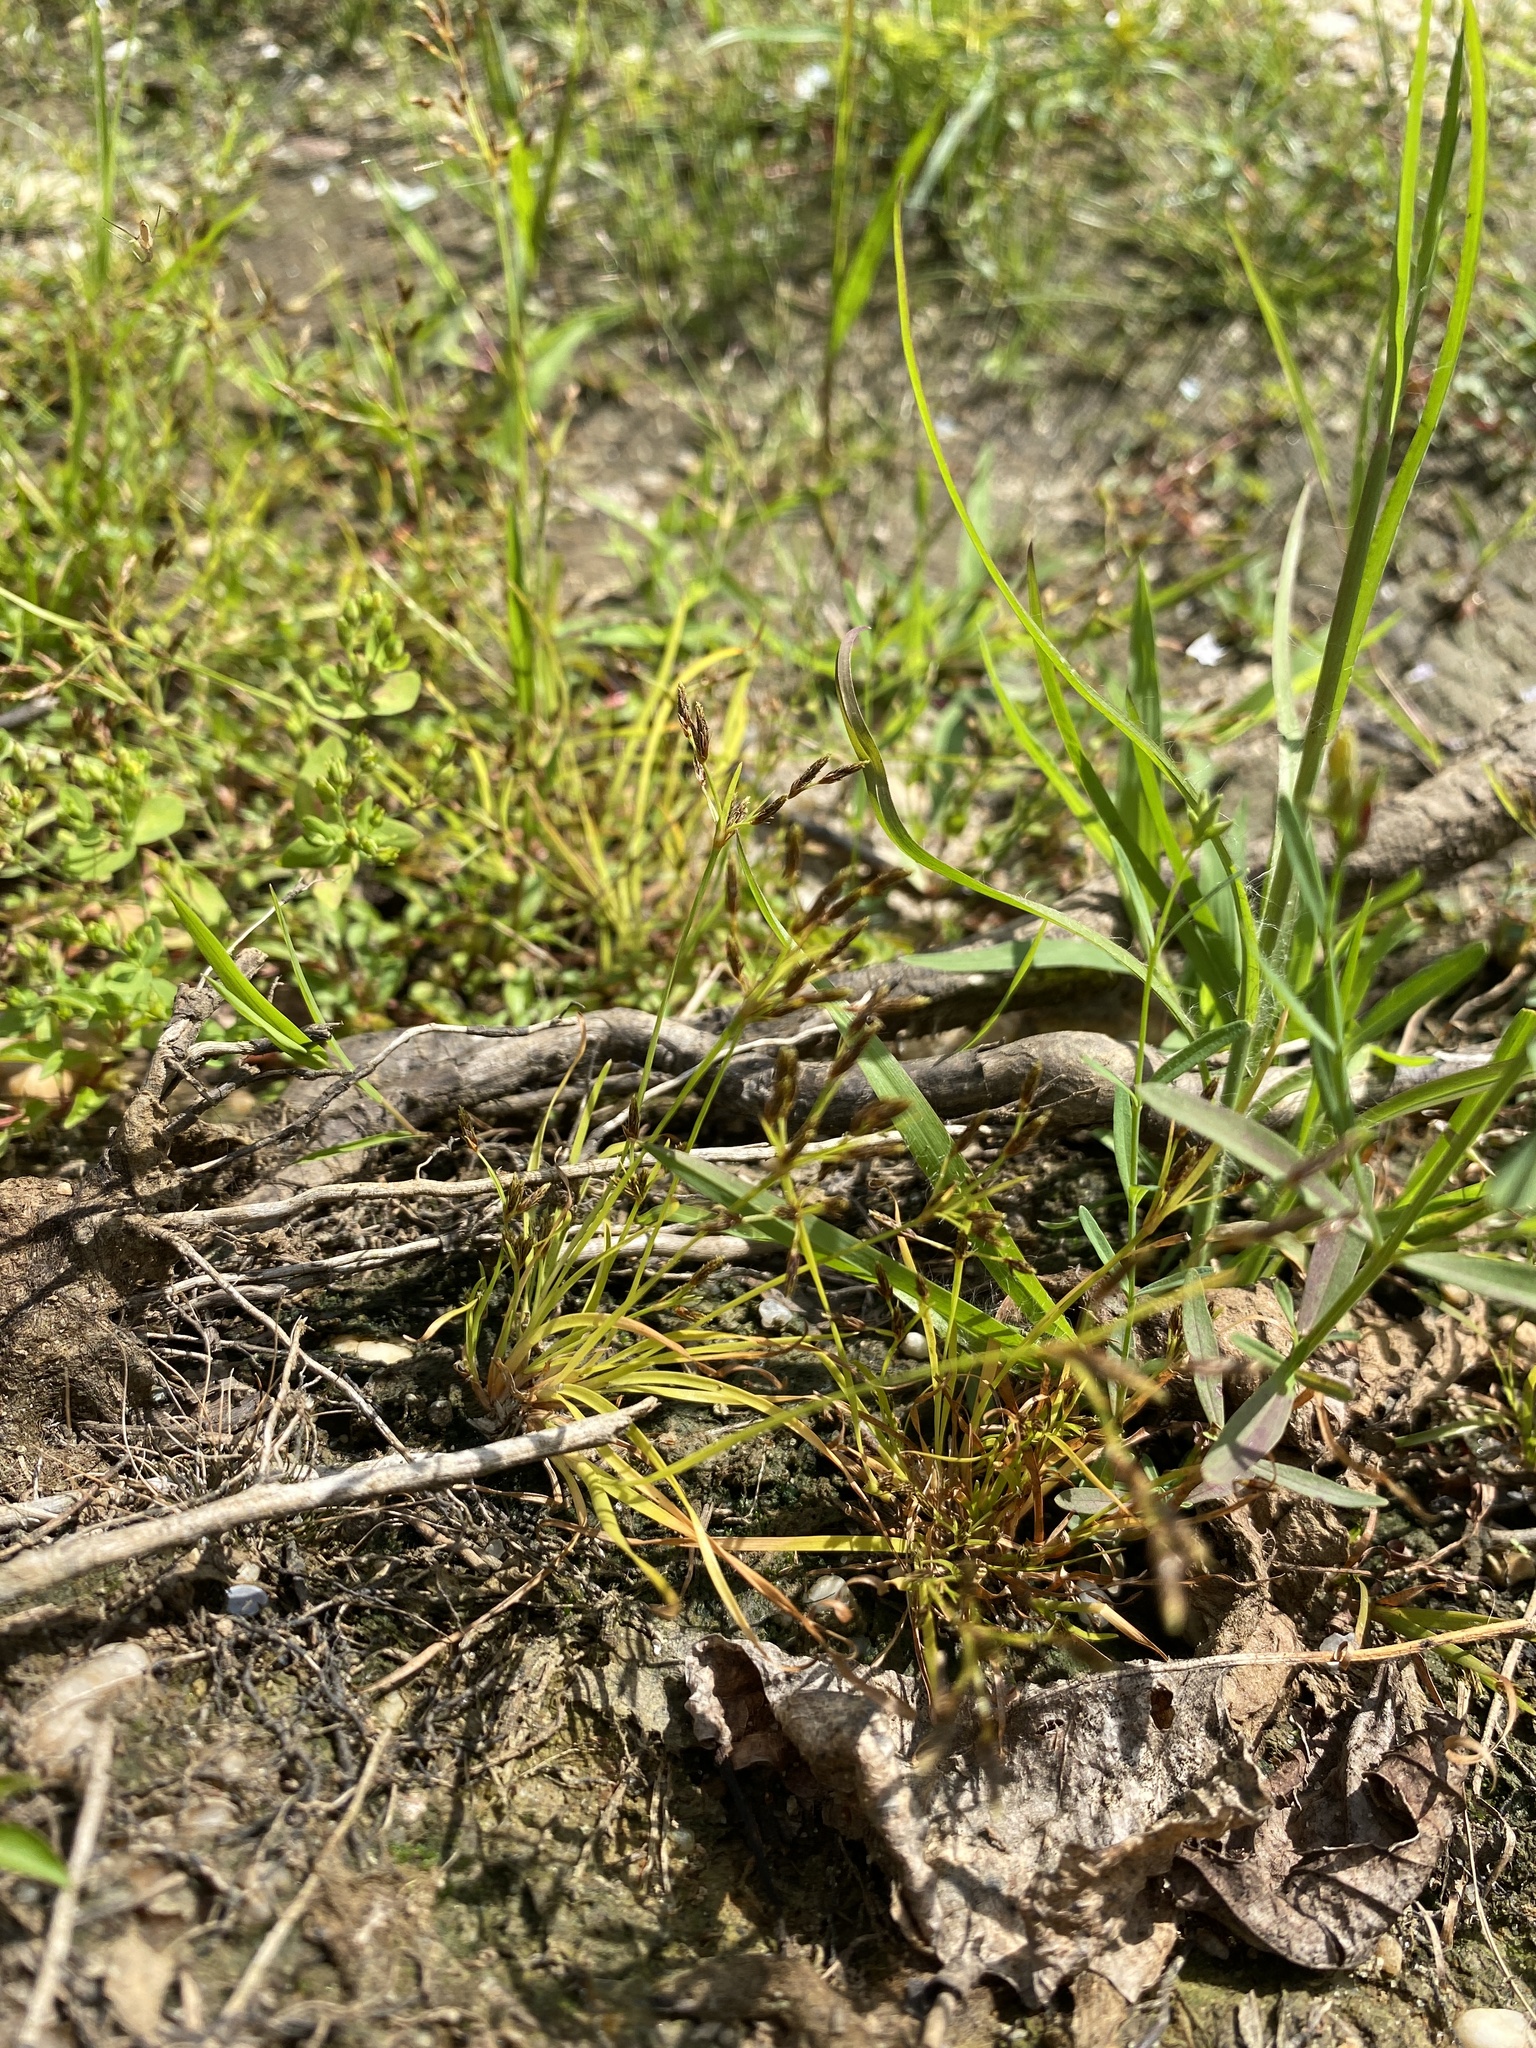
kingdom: Plantae
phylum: Tracheophyta
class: Liliopsida
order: Poales
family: Cyperaceae
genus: Fimbristylis
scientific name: Fimbristylis autumnalis
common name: Slender fimbristylis
